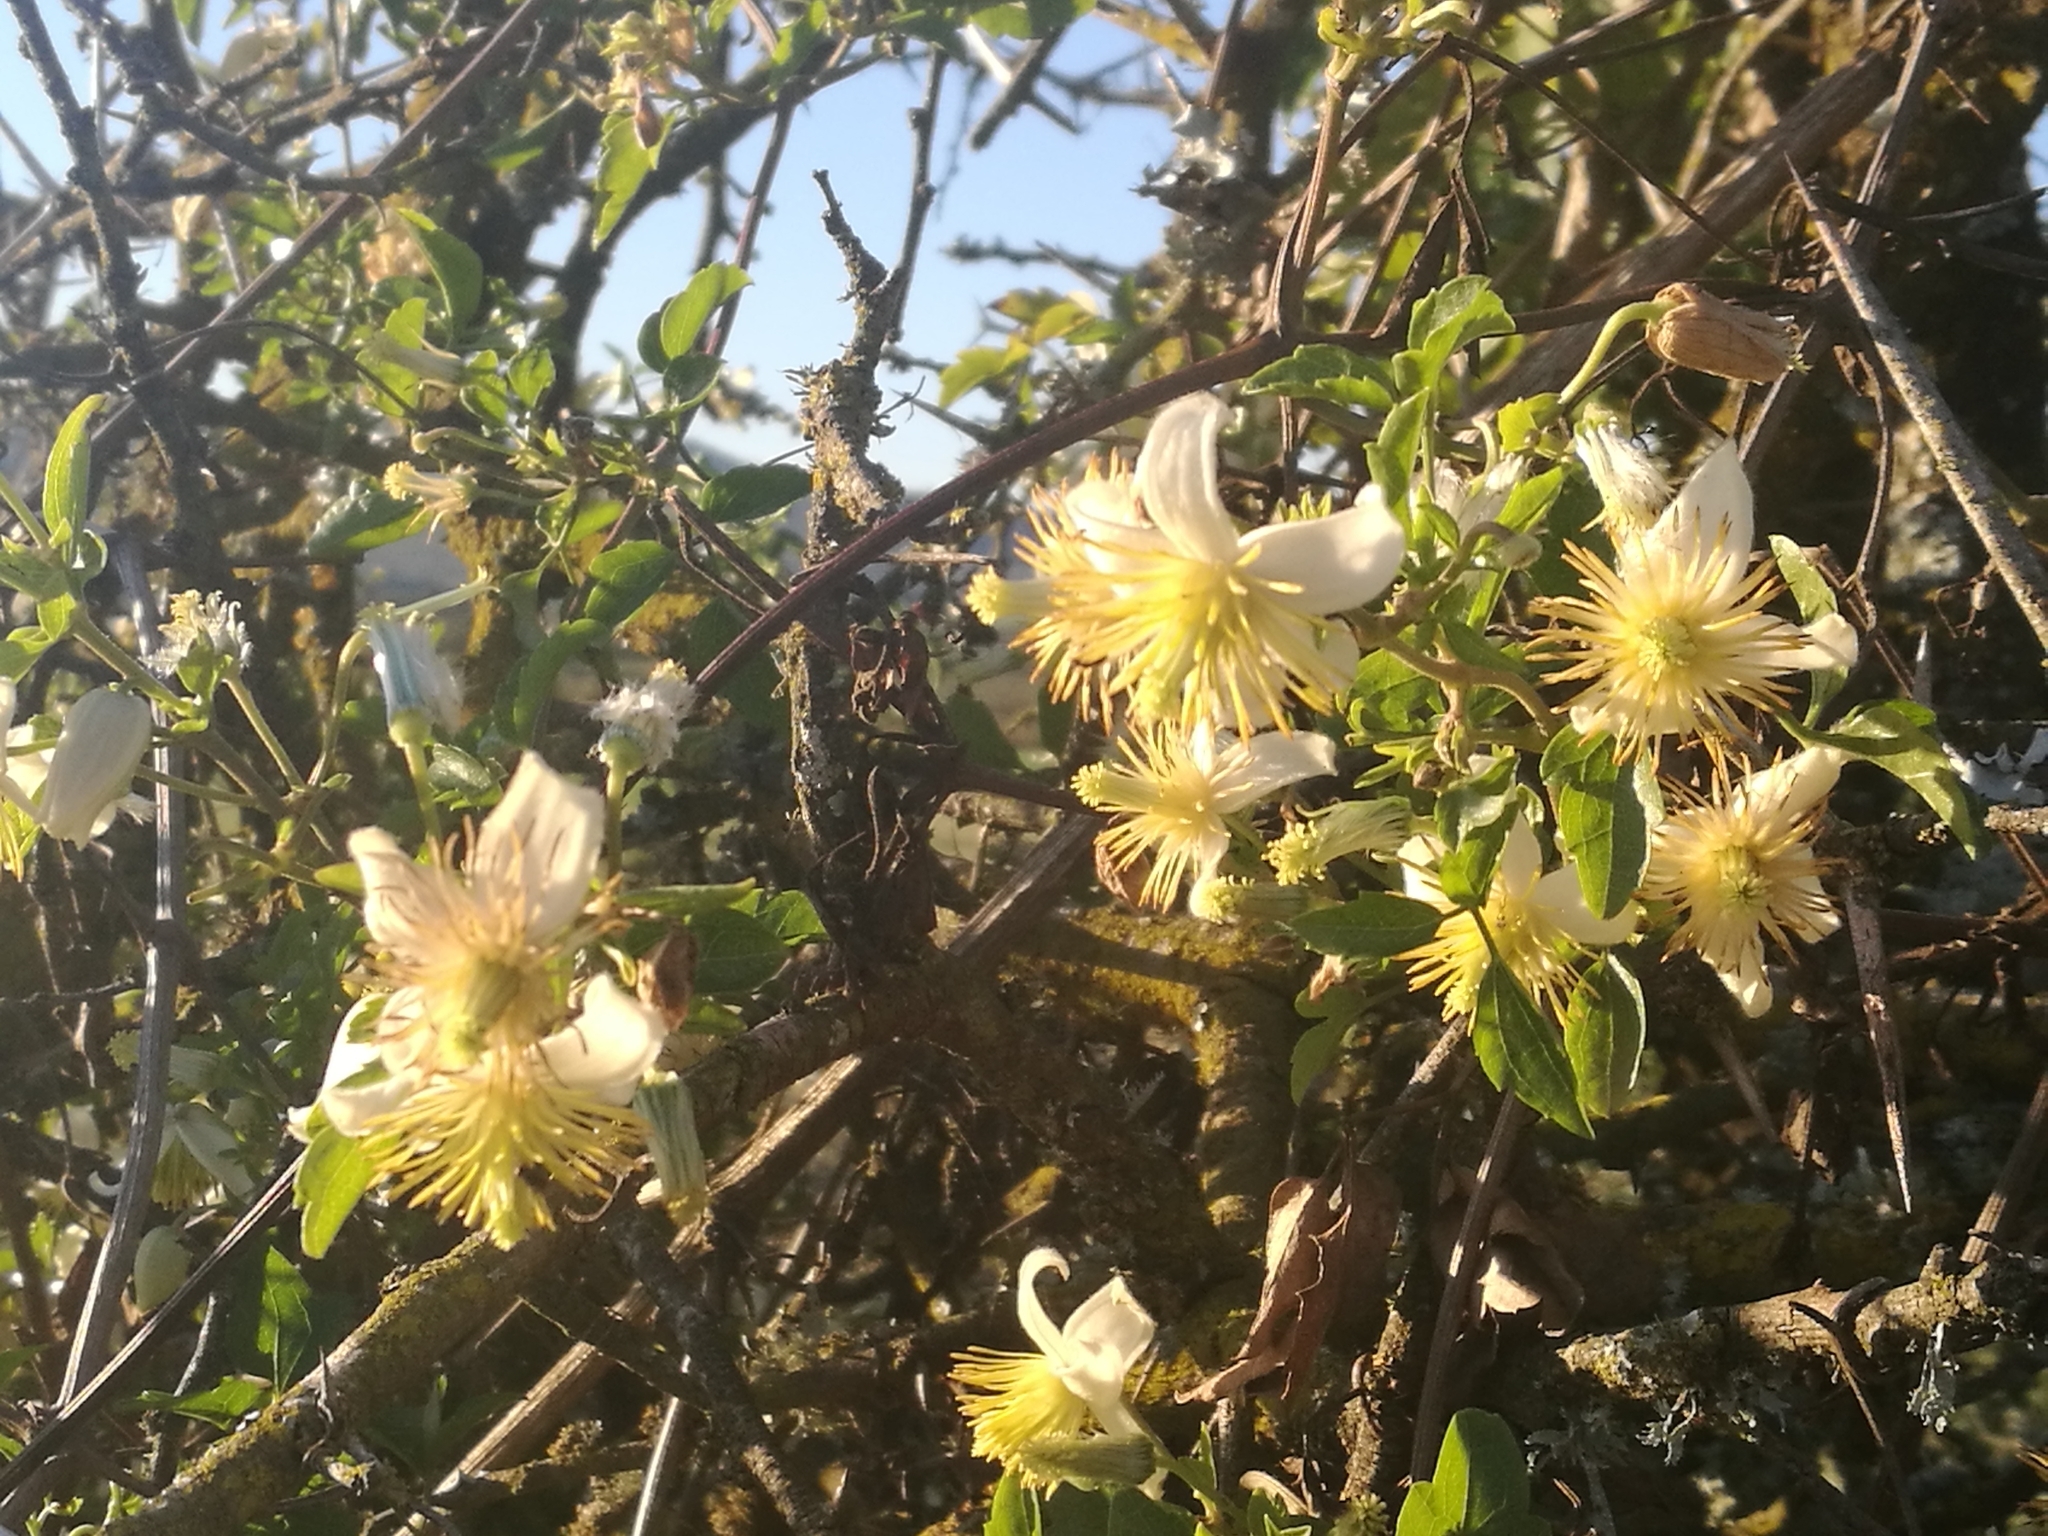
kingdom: Plantae
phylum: Tracheophyta
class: Magnoliopsida
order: Ranunculales
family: Ranunculaceae
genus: Clematis
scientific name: Clematis brachiata
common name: Traveler's-joy
